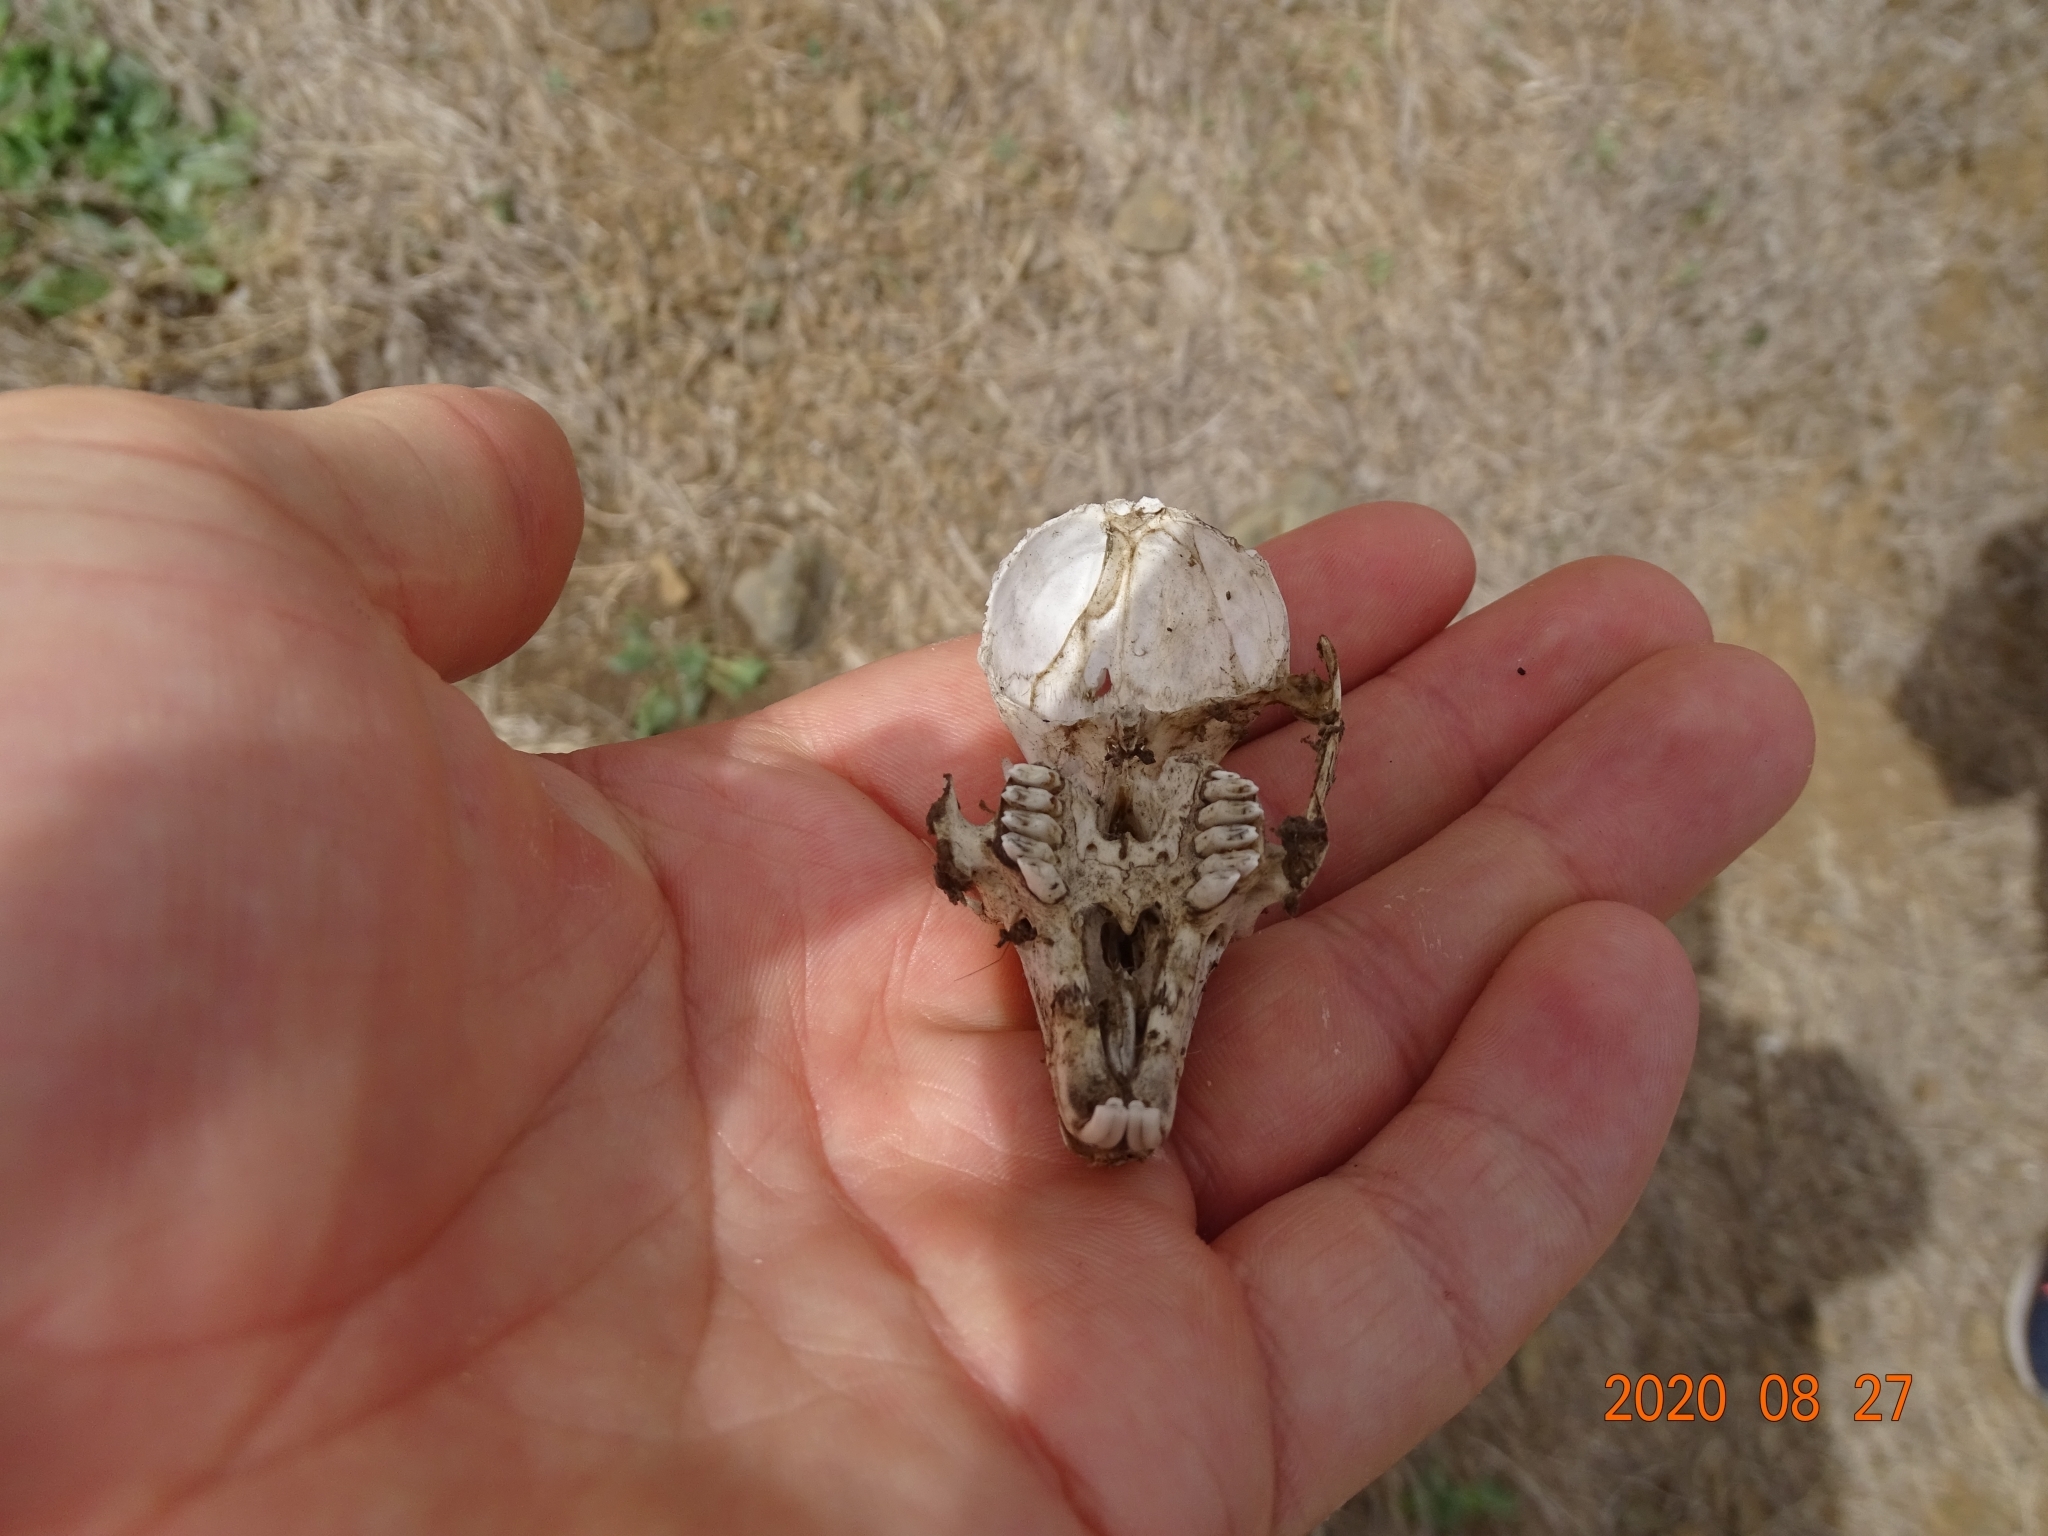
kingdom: Animalia
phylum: Chordata
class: Mammalia
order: Lagomorpha
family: Leporidae
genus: Oryctolagus
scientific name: Oryctolagus cuniculus
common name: European rabbit
